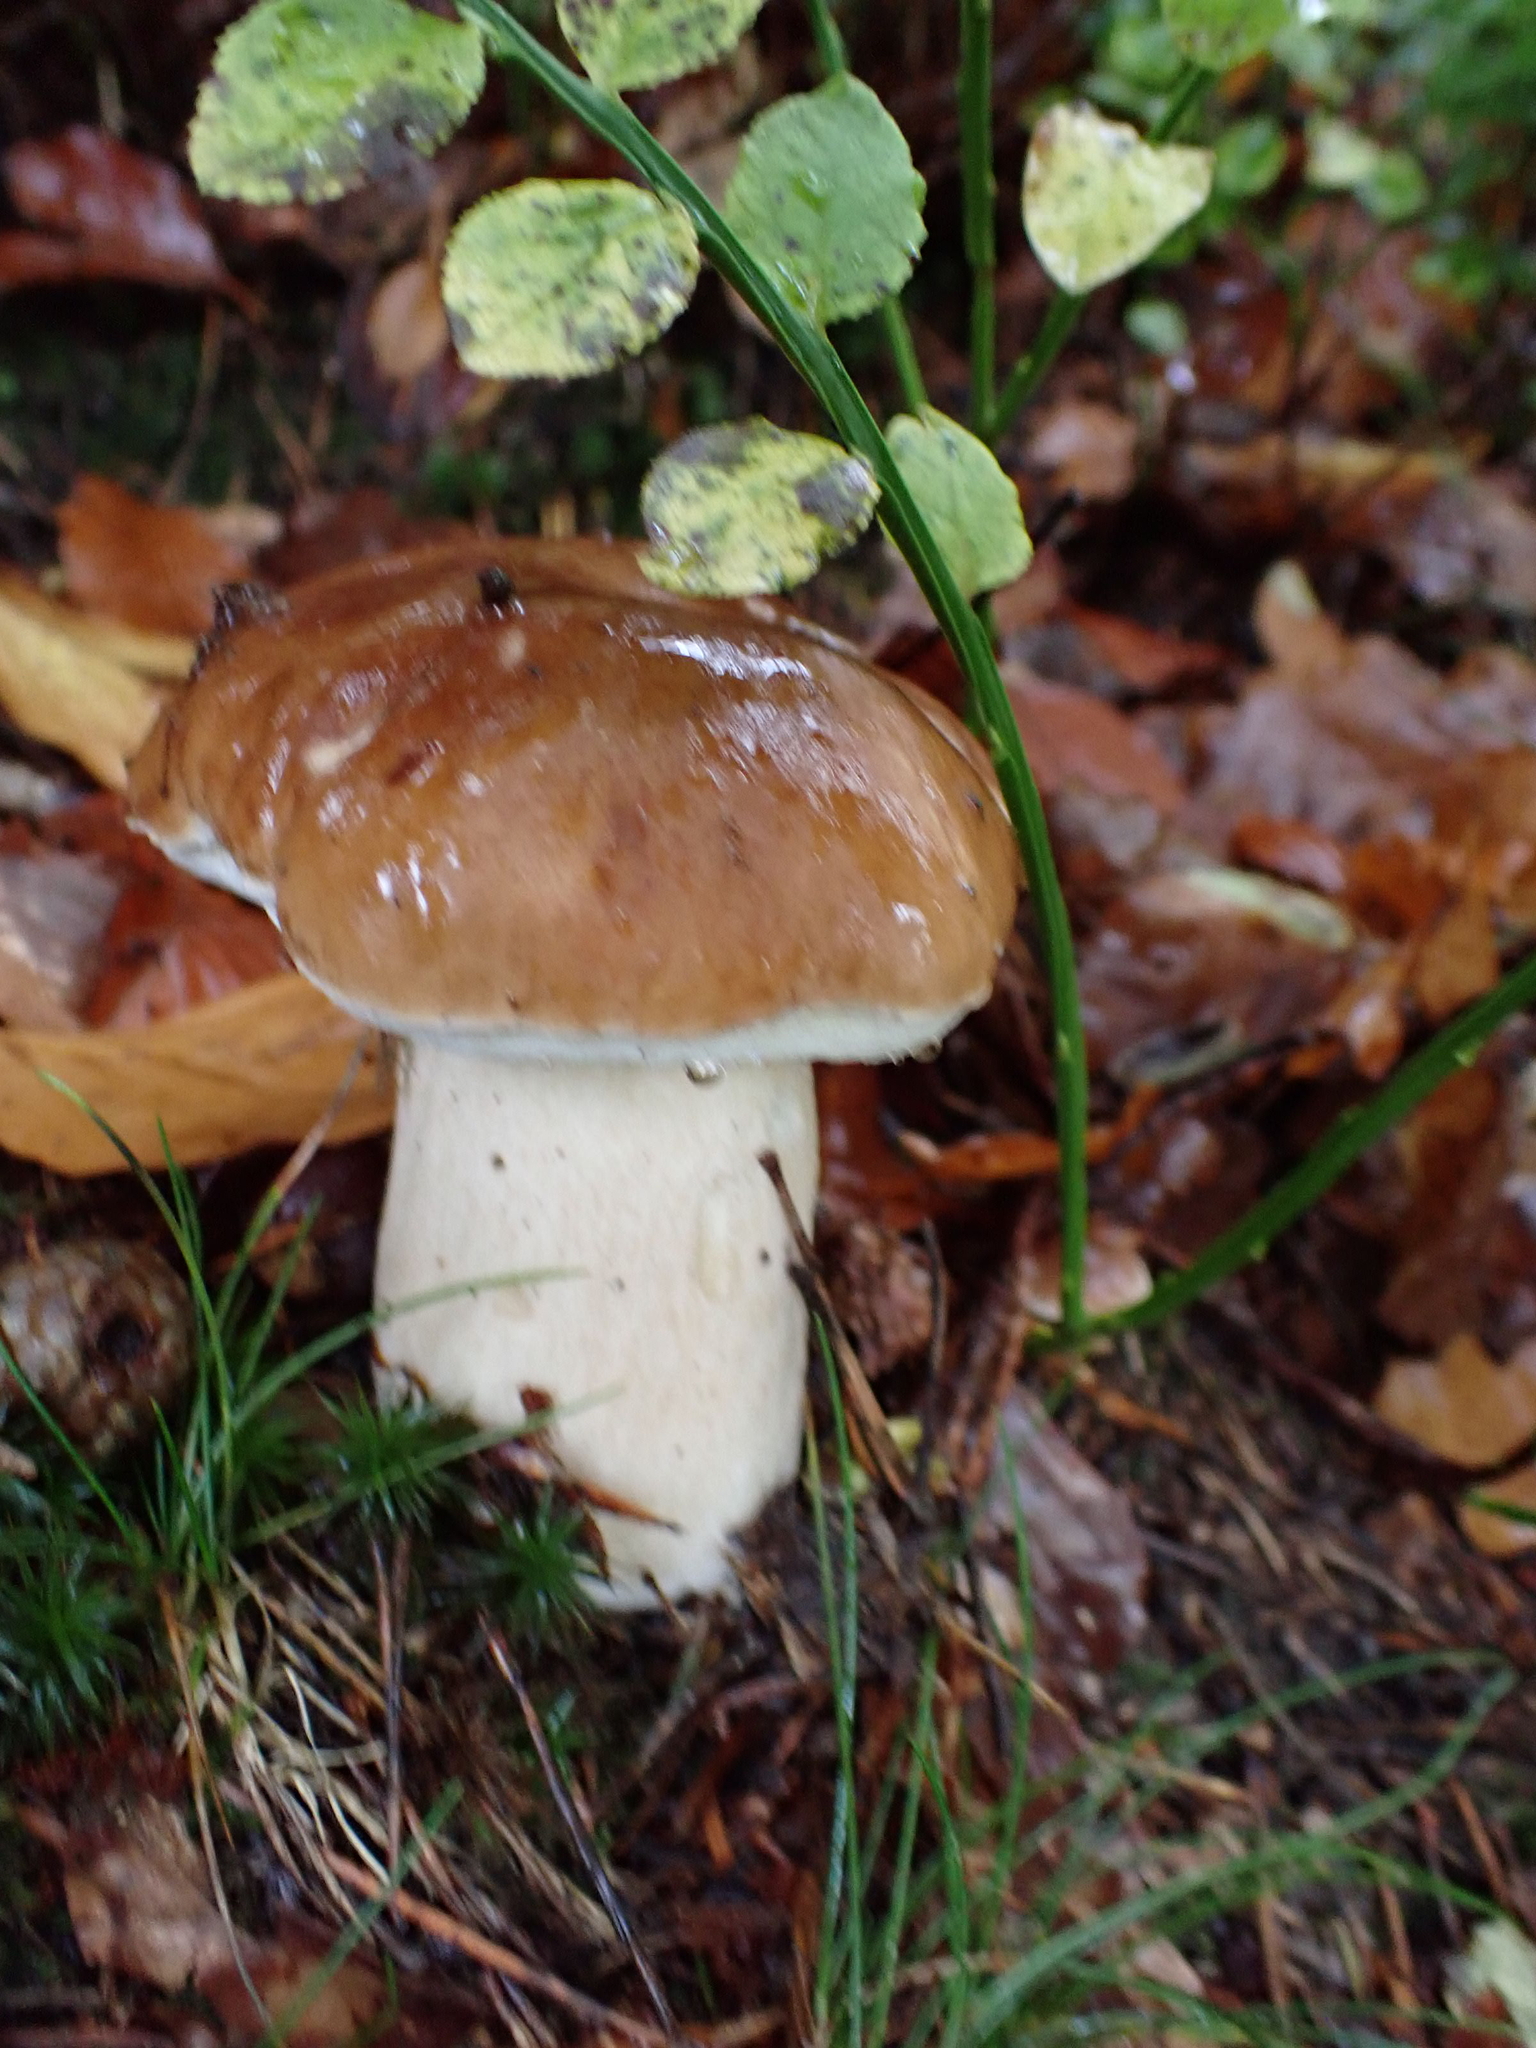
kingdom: Fungi
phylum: Basidiomycota
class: Agaricomycetes
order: Boletales
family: Boletaceae
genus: Boletus
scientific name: Boletus edulis
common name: Cep
